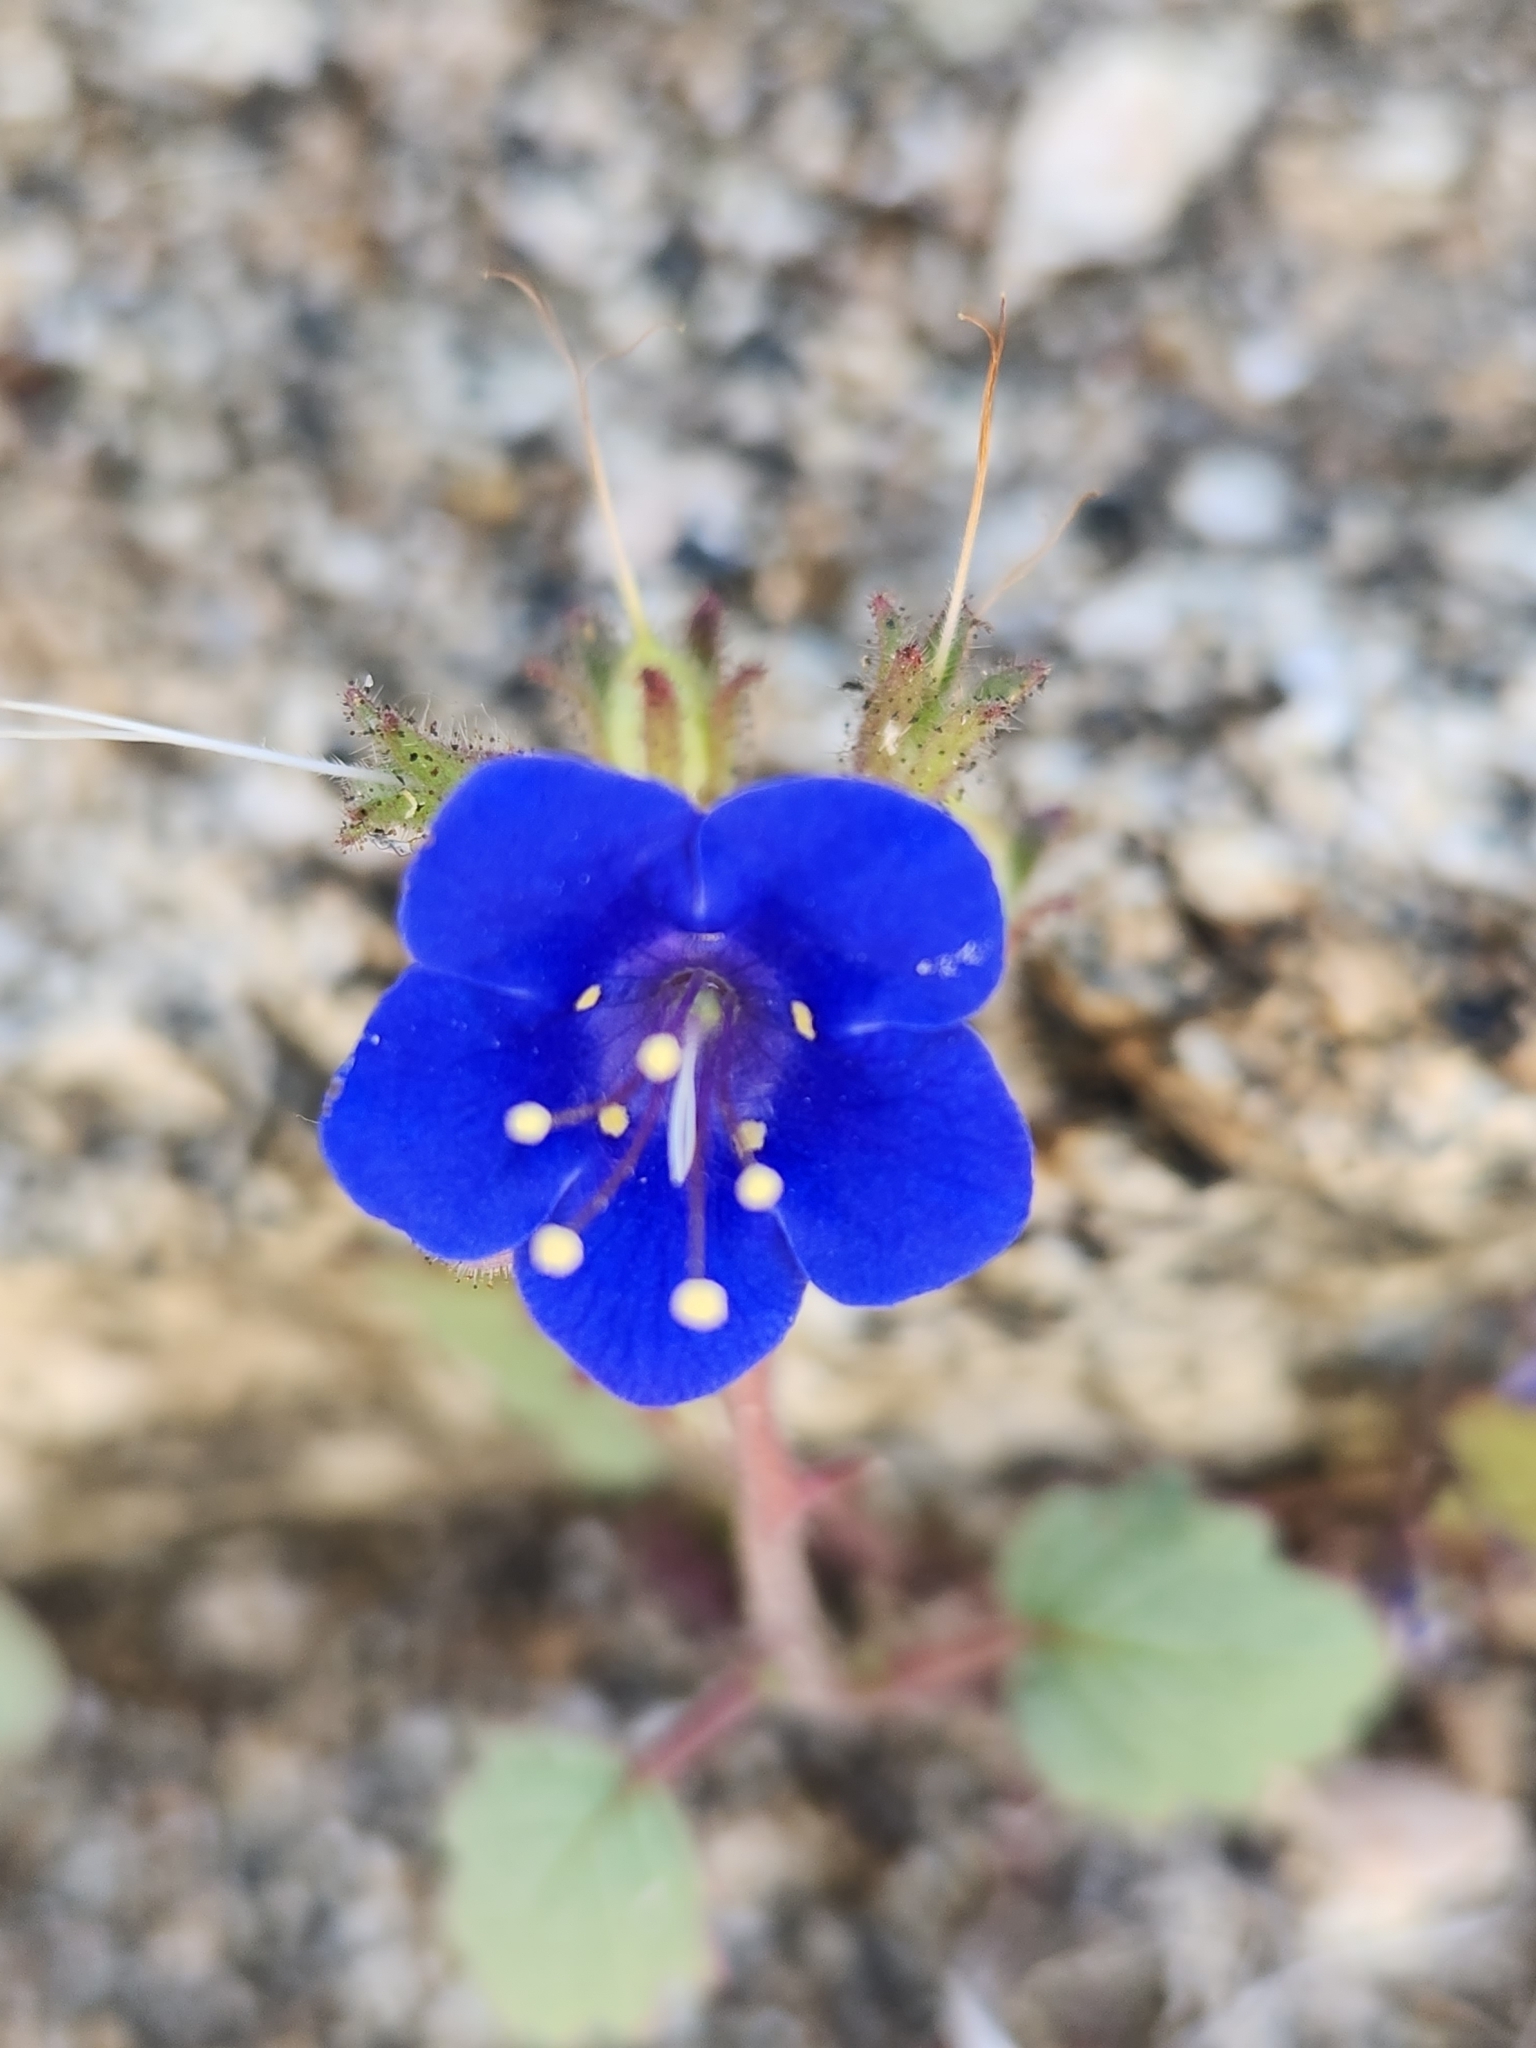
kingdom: Plantae
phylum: Tracheophyta
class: Magnoliopsida
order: Boraginales
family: Hydrophyllaceae
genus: Phacelia
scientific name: Phacelia minor
